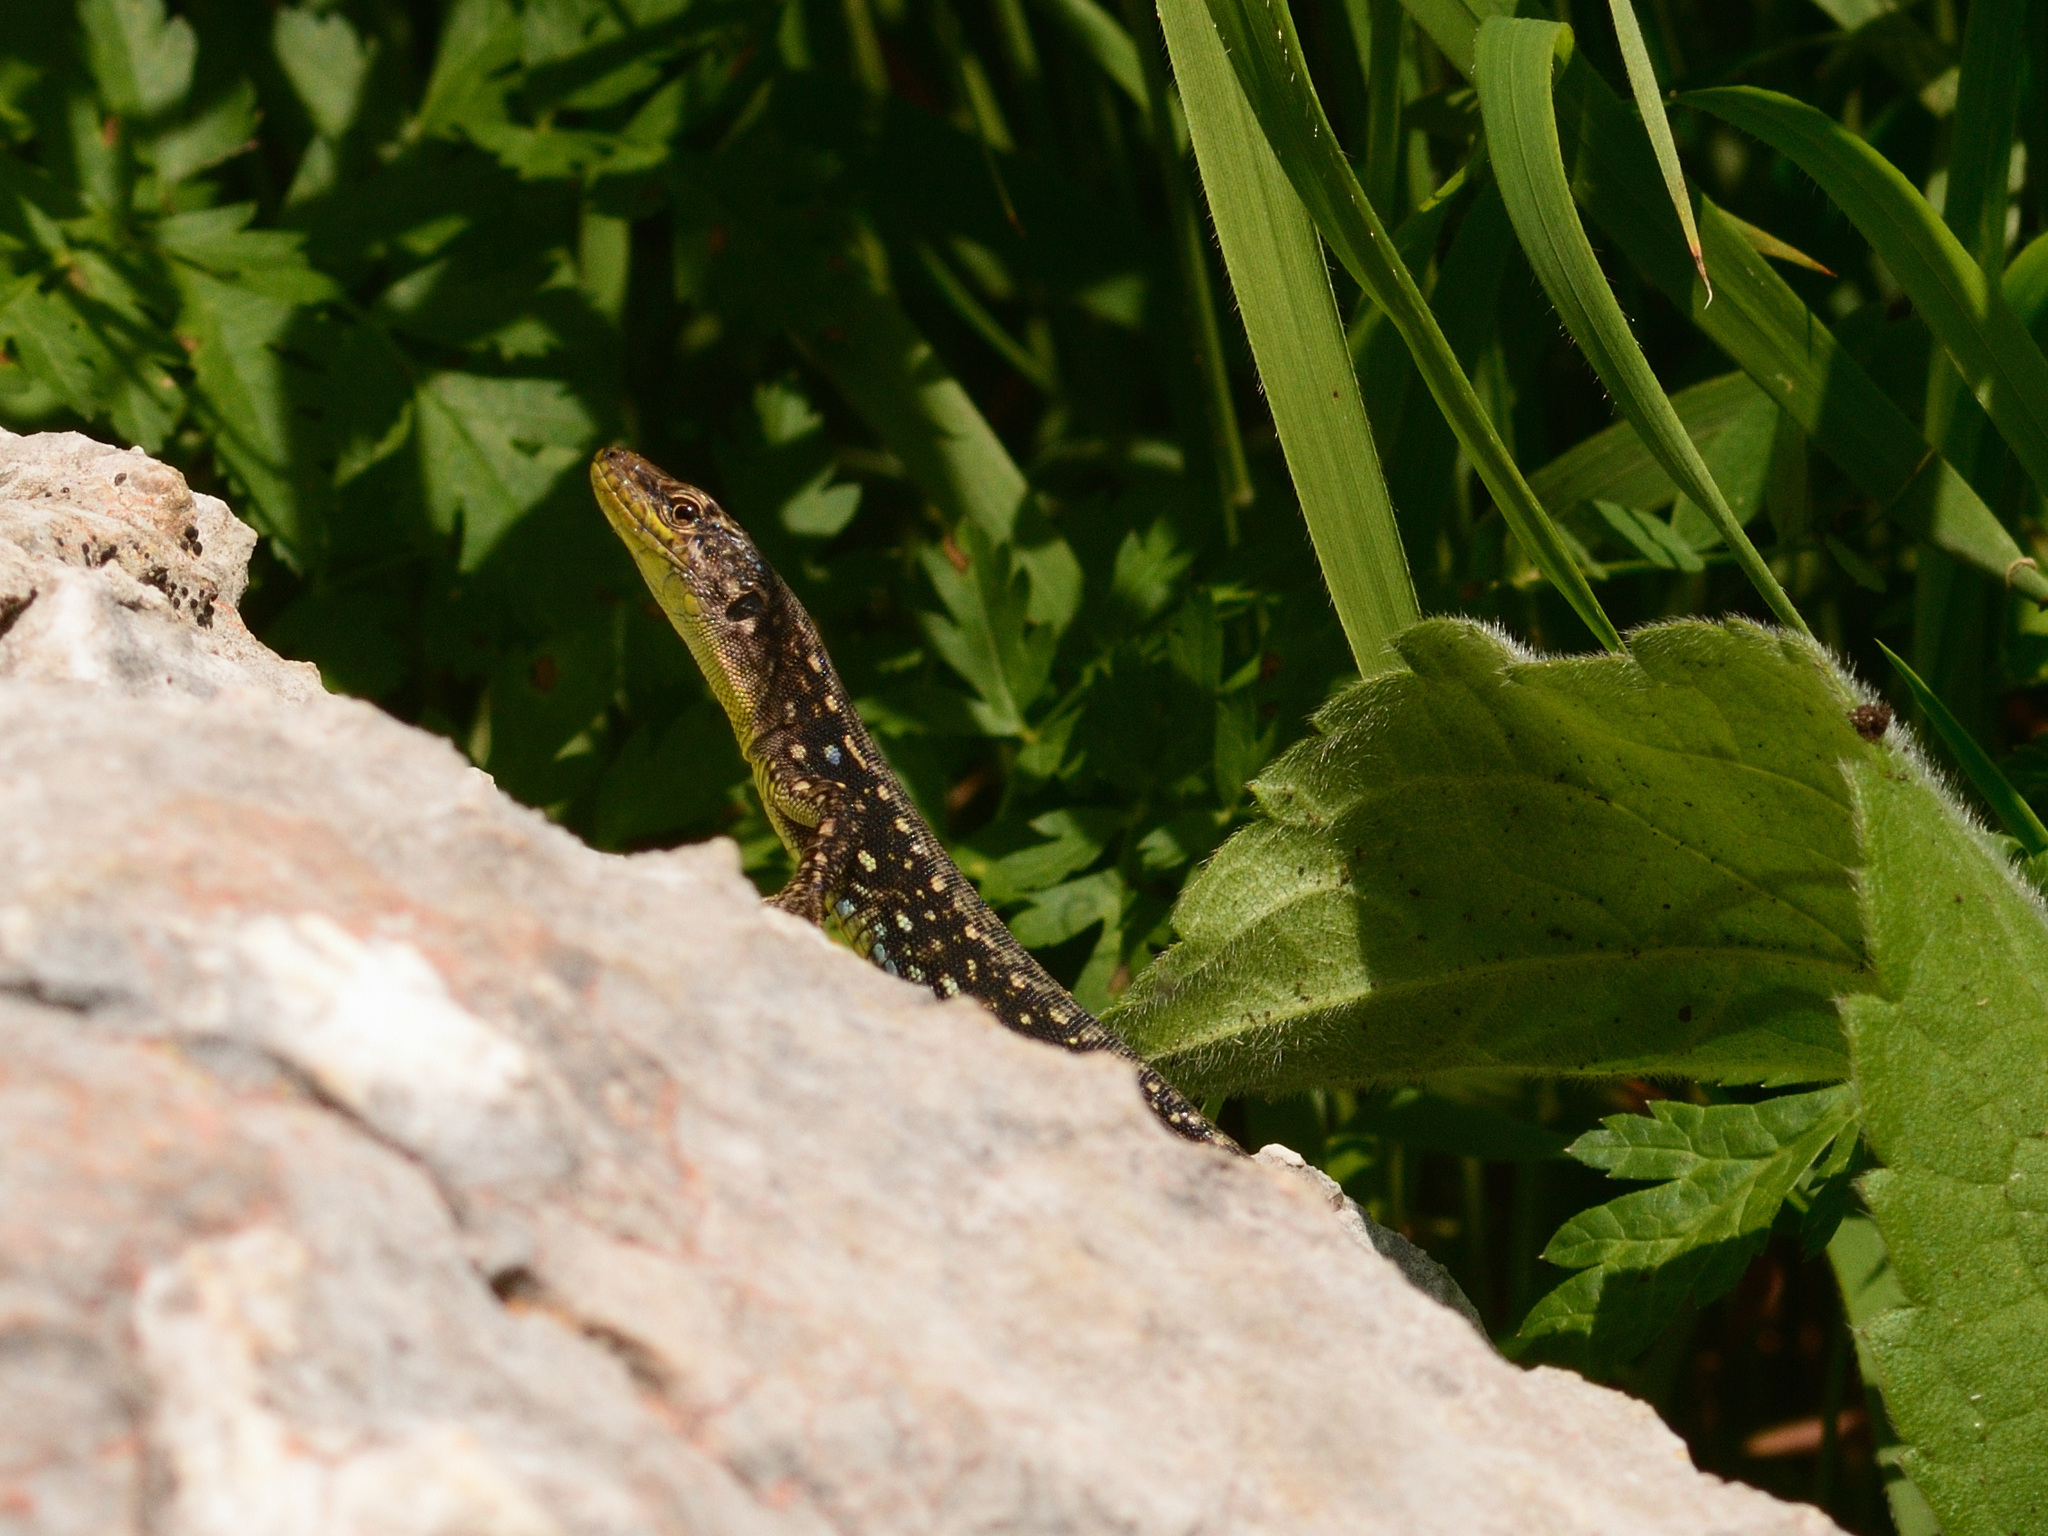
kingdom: Animalia
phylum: Chordata
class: Squamata
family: Lacertidae
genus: Darevskia
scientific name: Darevskia brauneri
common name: Brauner's rock lizard
